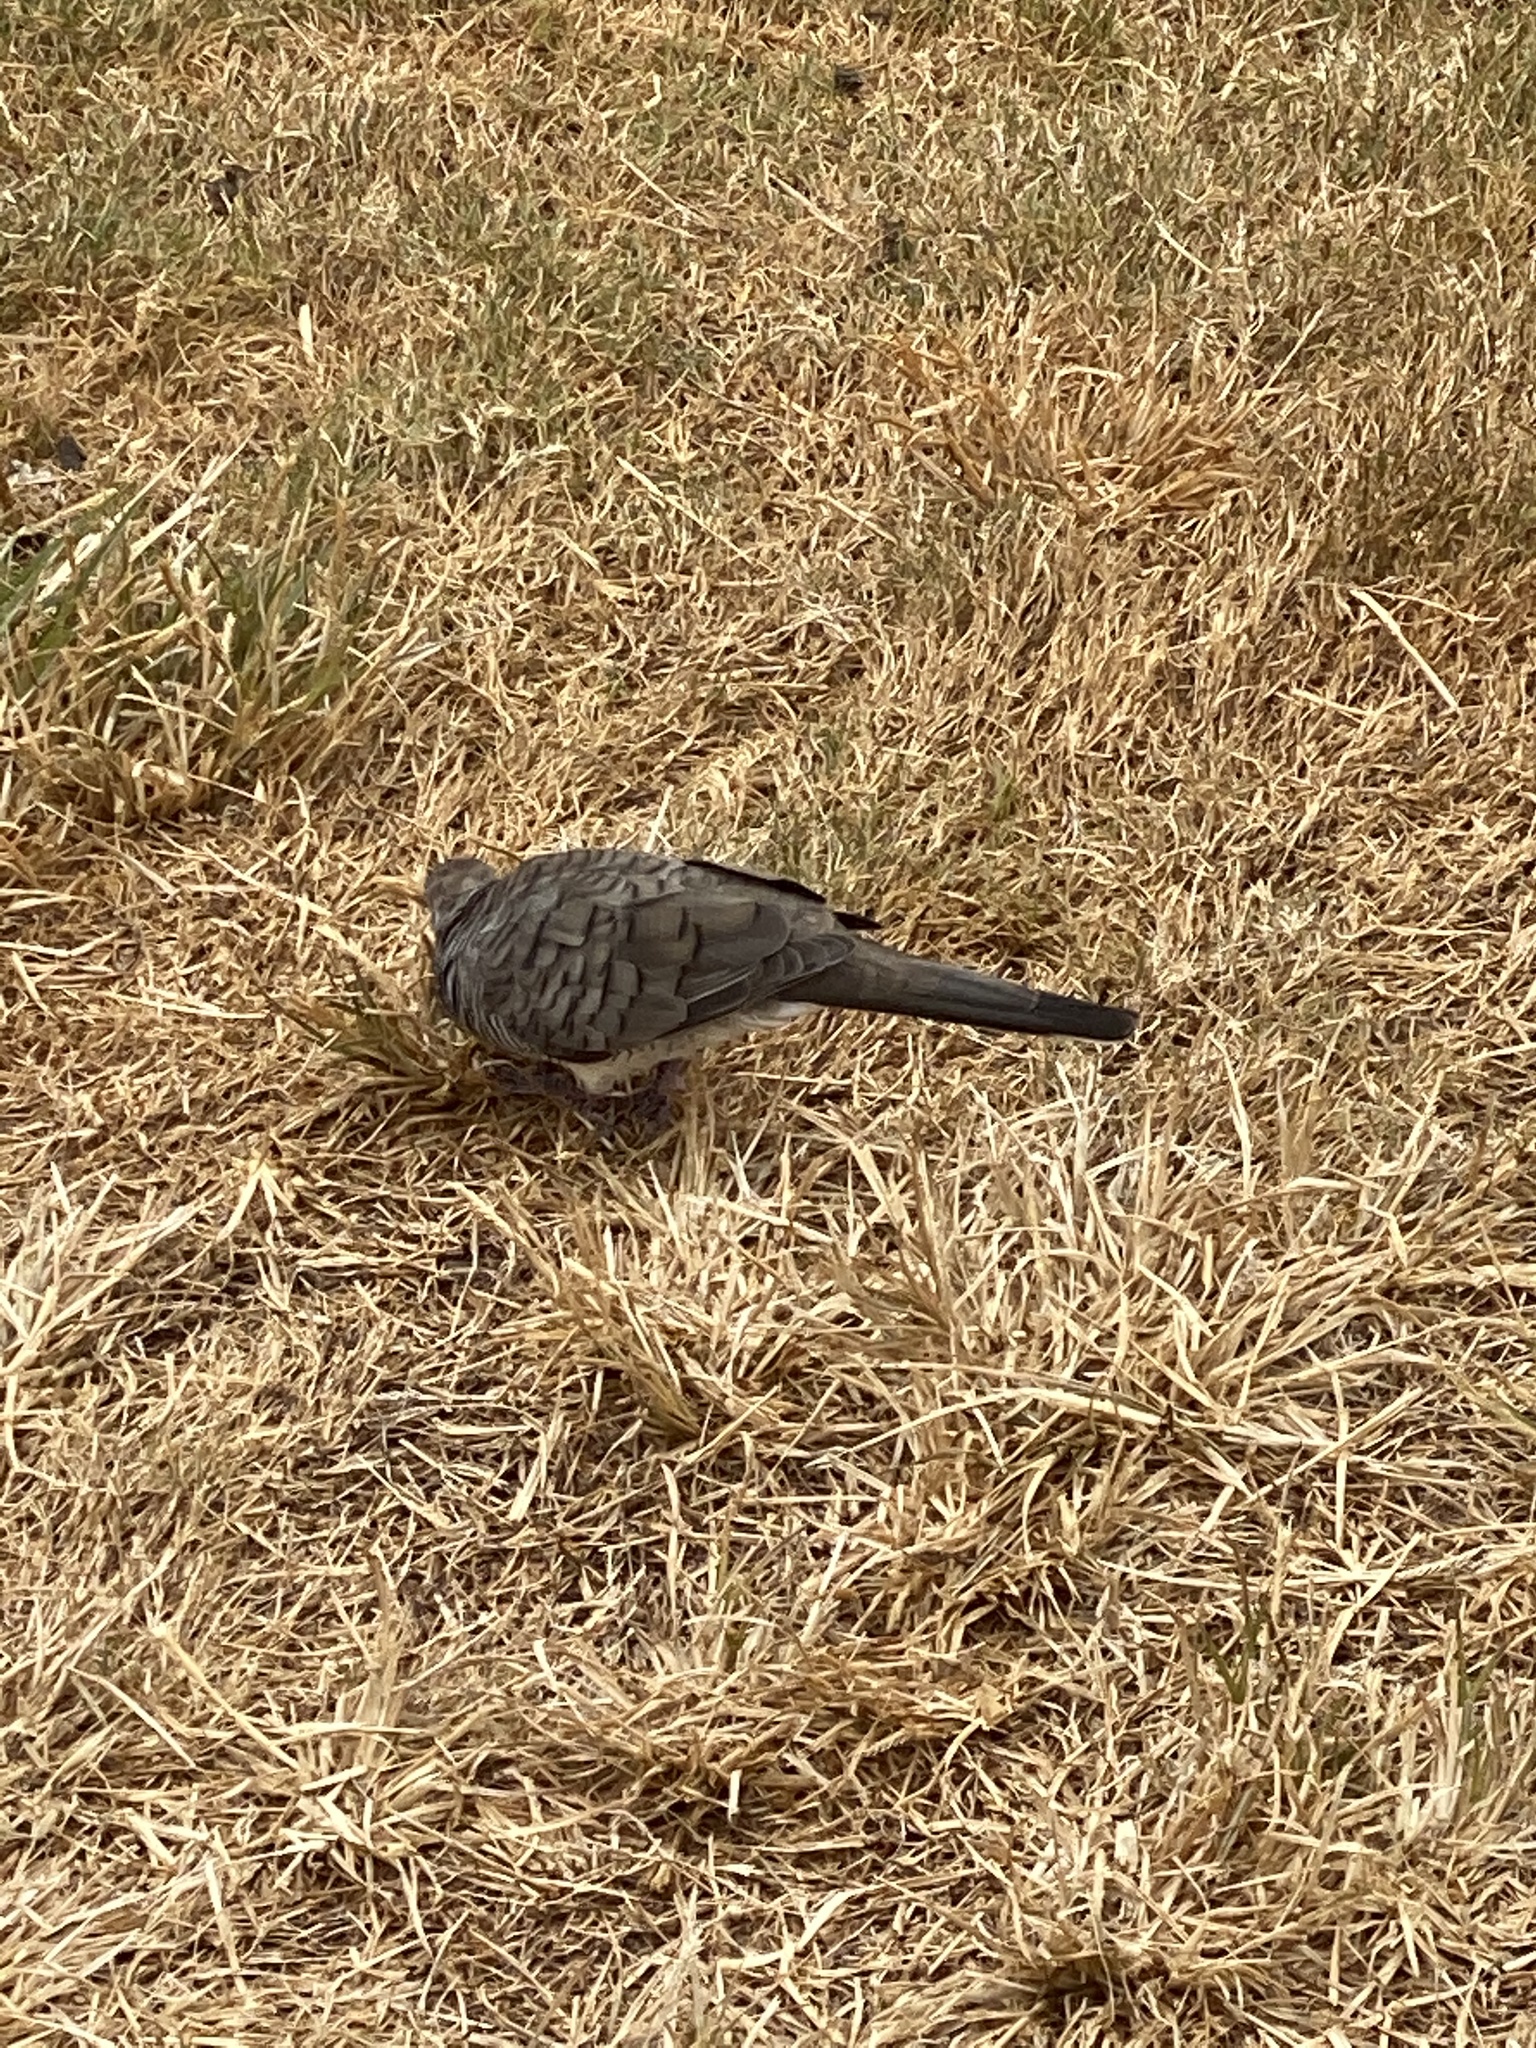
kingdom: Animalia
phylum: Chordata
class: Aves
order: Columbiformes
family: Columbidae
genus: Geopelia
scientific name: Geopelia striata
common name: Zebra dove
